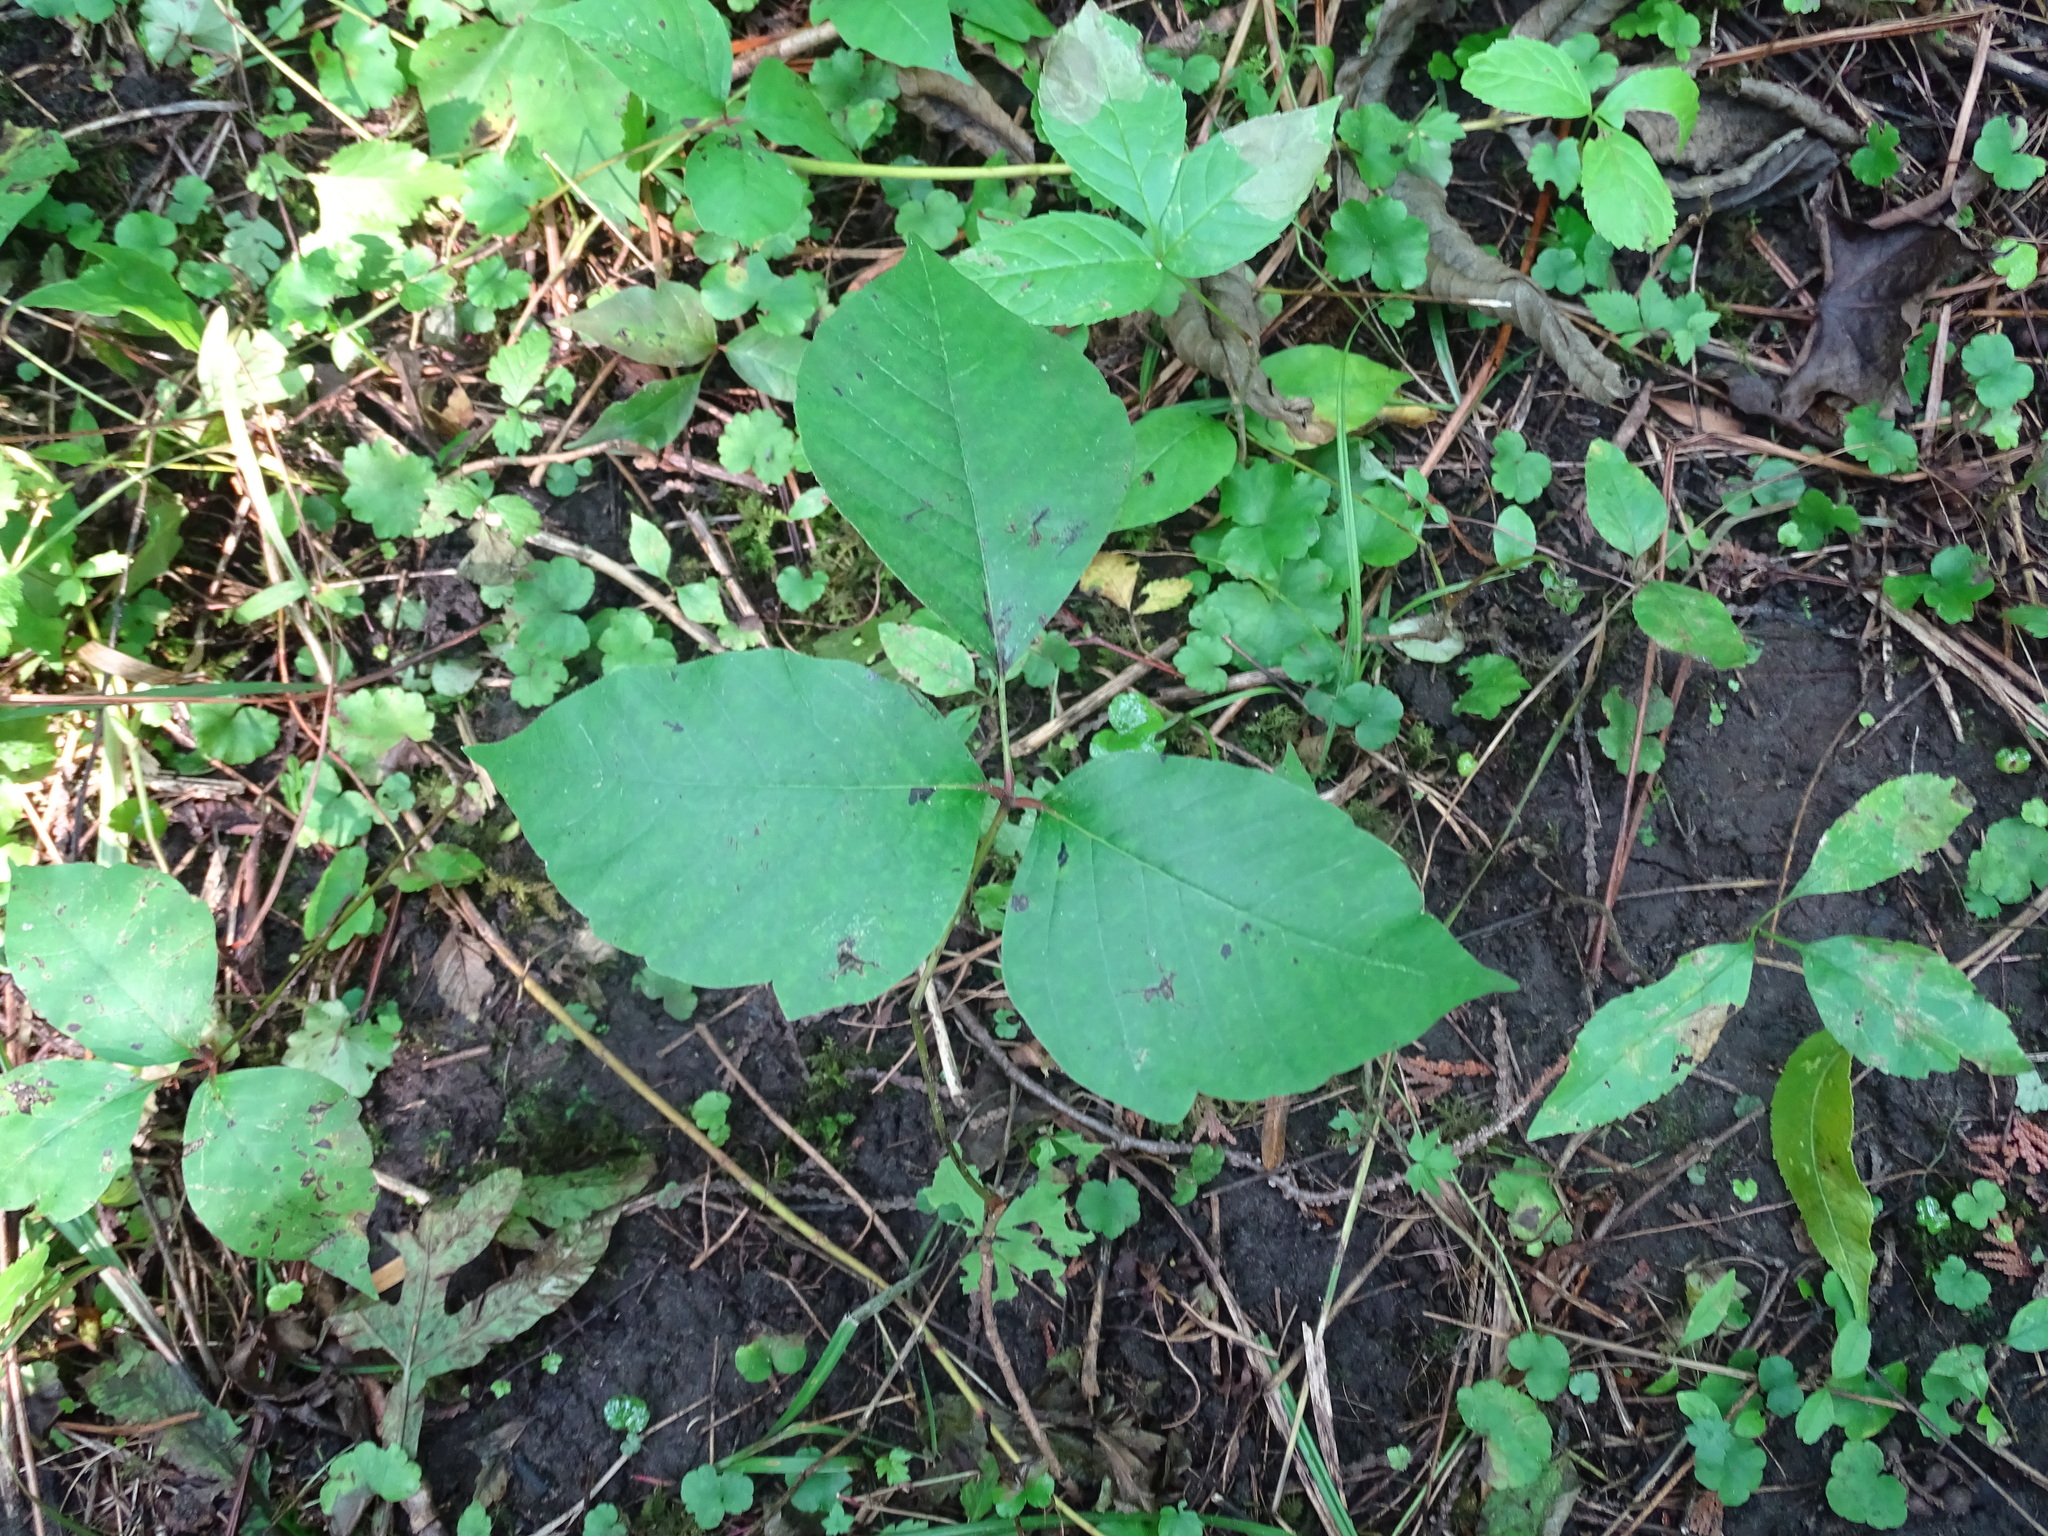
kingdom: Plantae
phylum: Tracheophyta
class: Magnoliopsida
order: Sapindales
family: Anacardiaceae
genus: Toxicodendron
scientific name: Toxicodendron rydbergii
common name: Rydberg's poison-ivy
